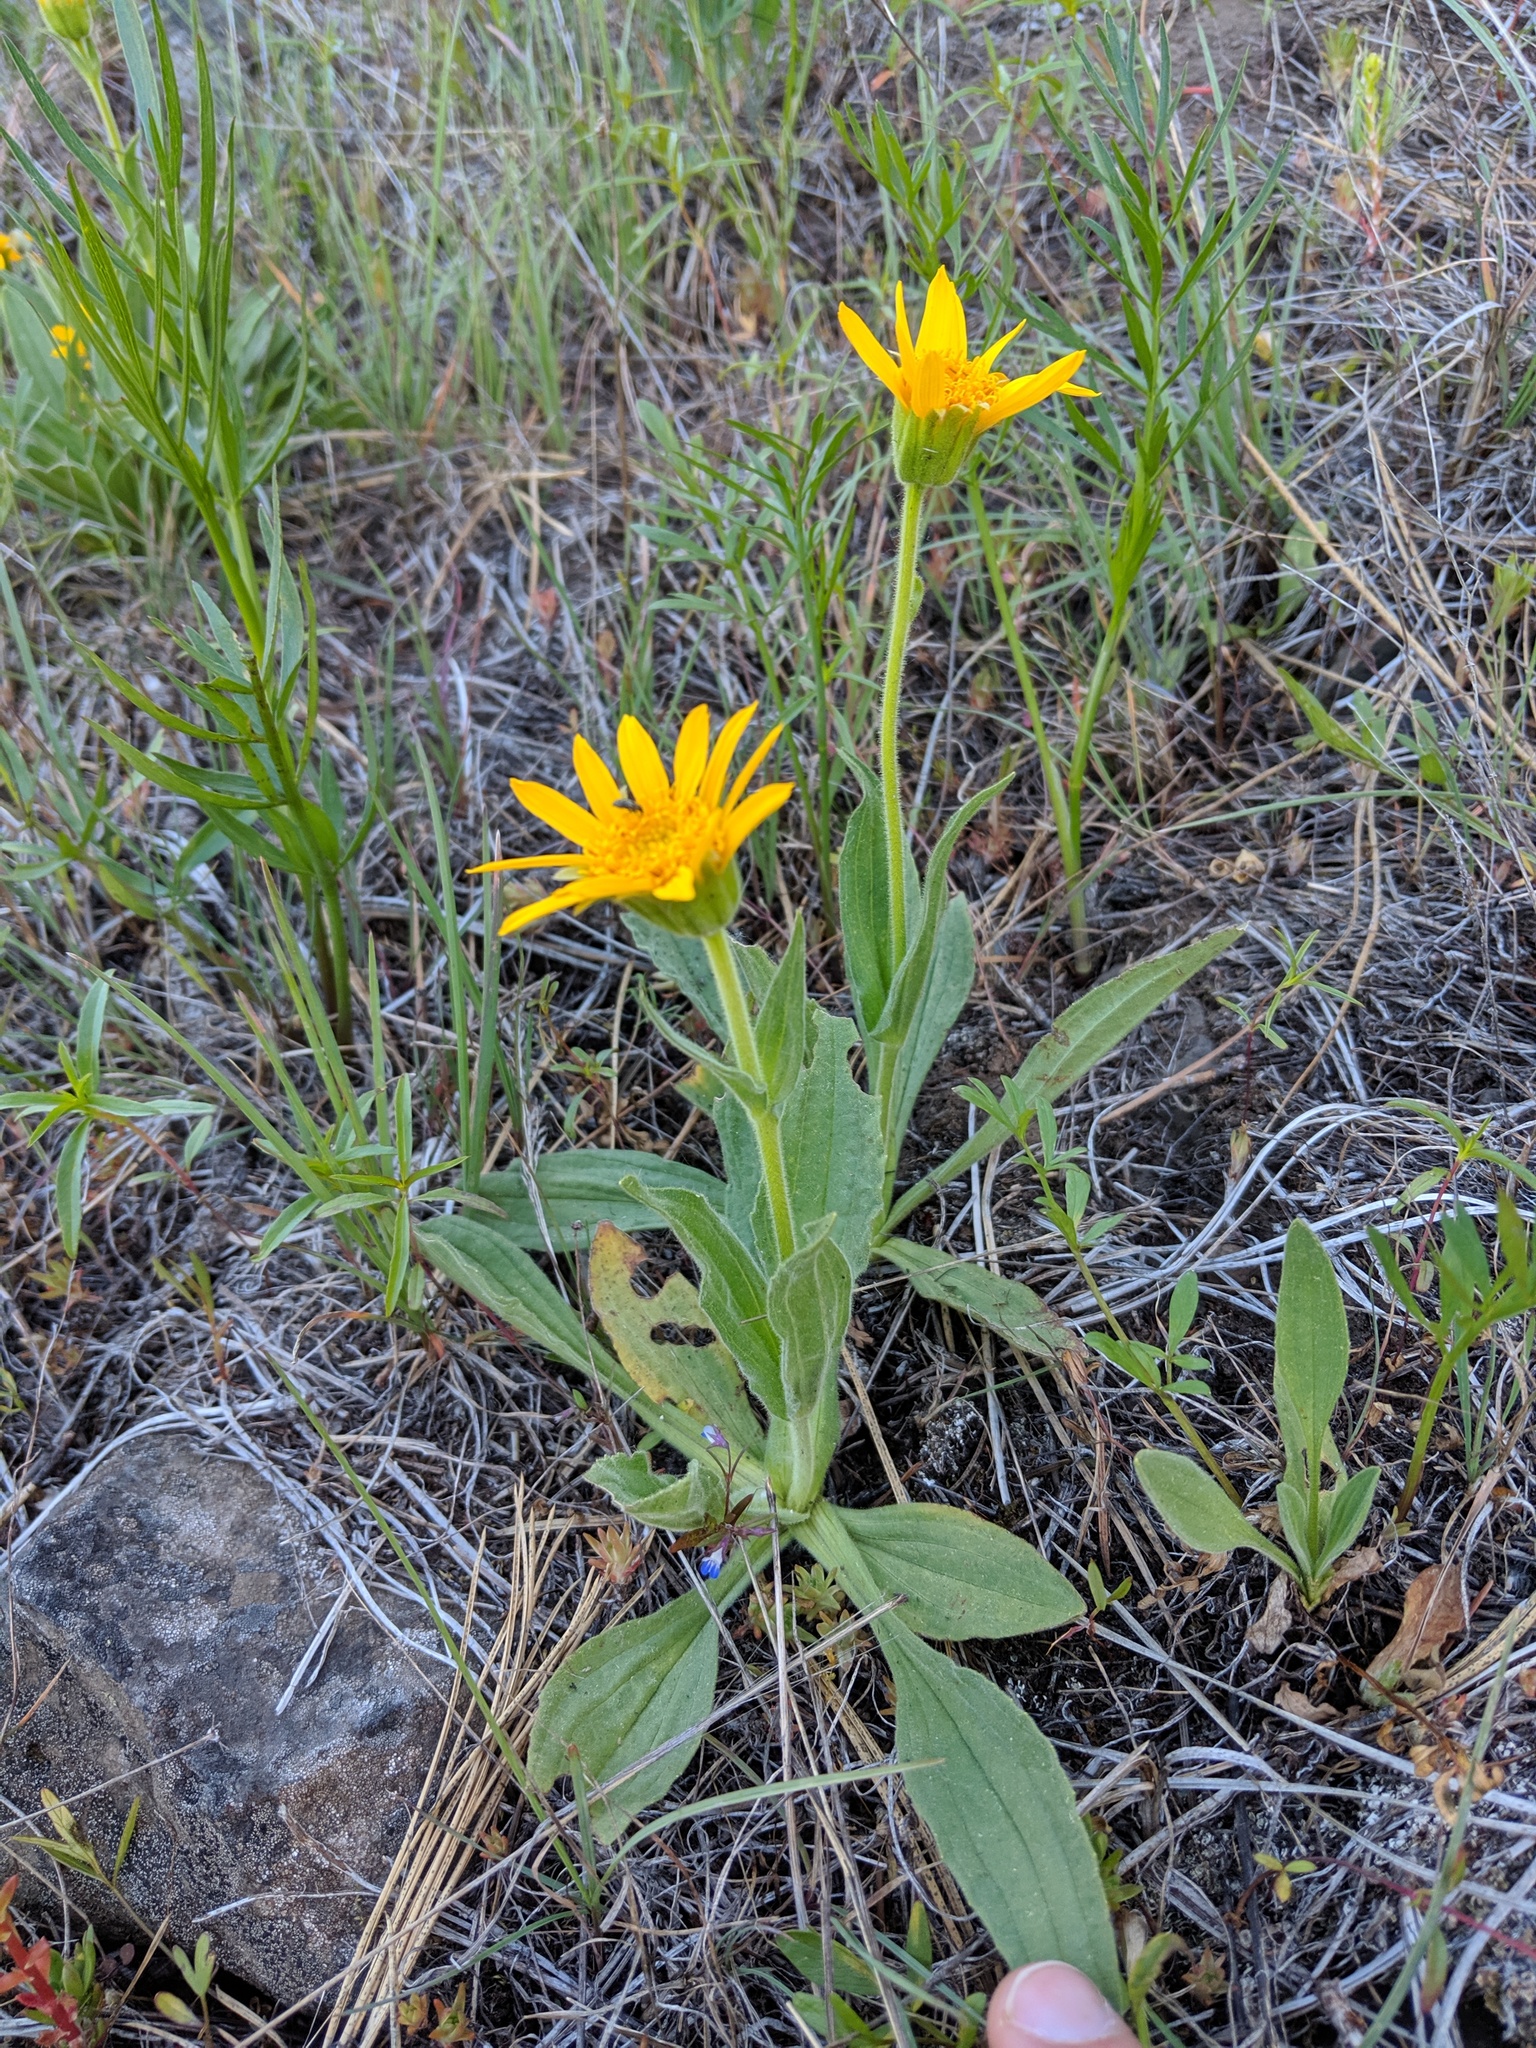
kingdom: Plantae
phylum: Tracheophyta
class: Magnoliopsida
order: Asterales
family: Asteraceae
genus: Arnica
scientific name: Arnica sororia
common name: Twin arnica
